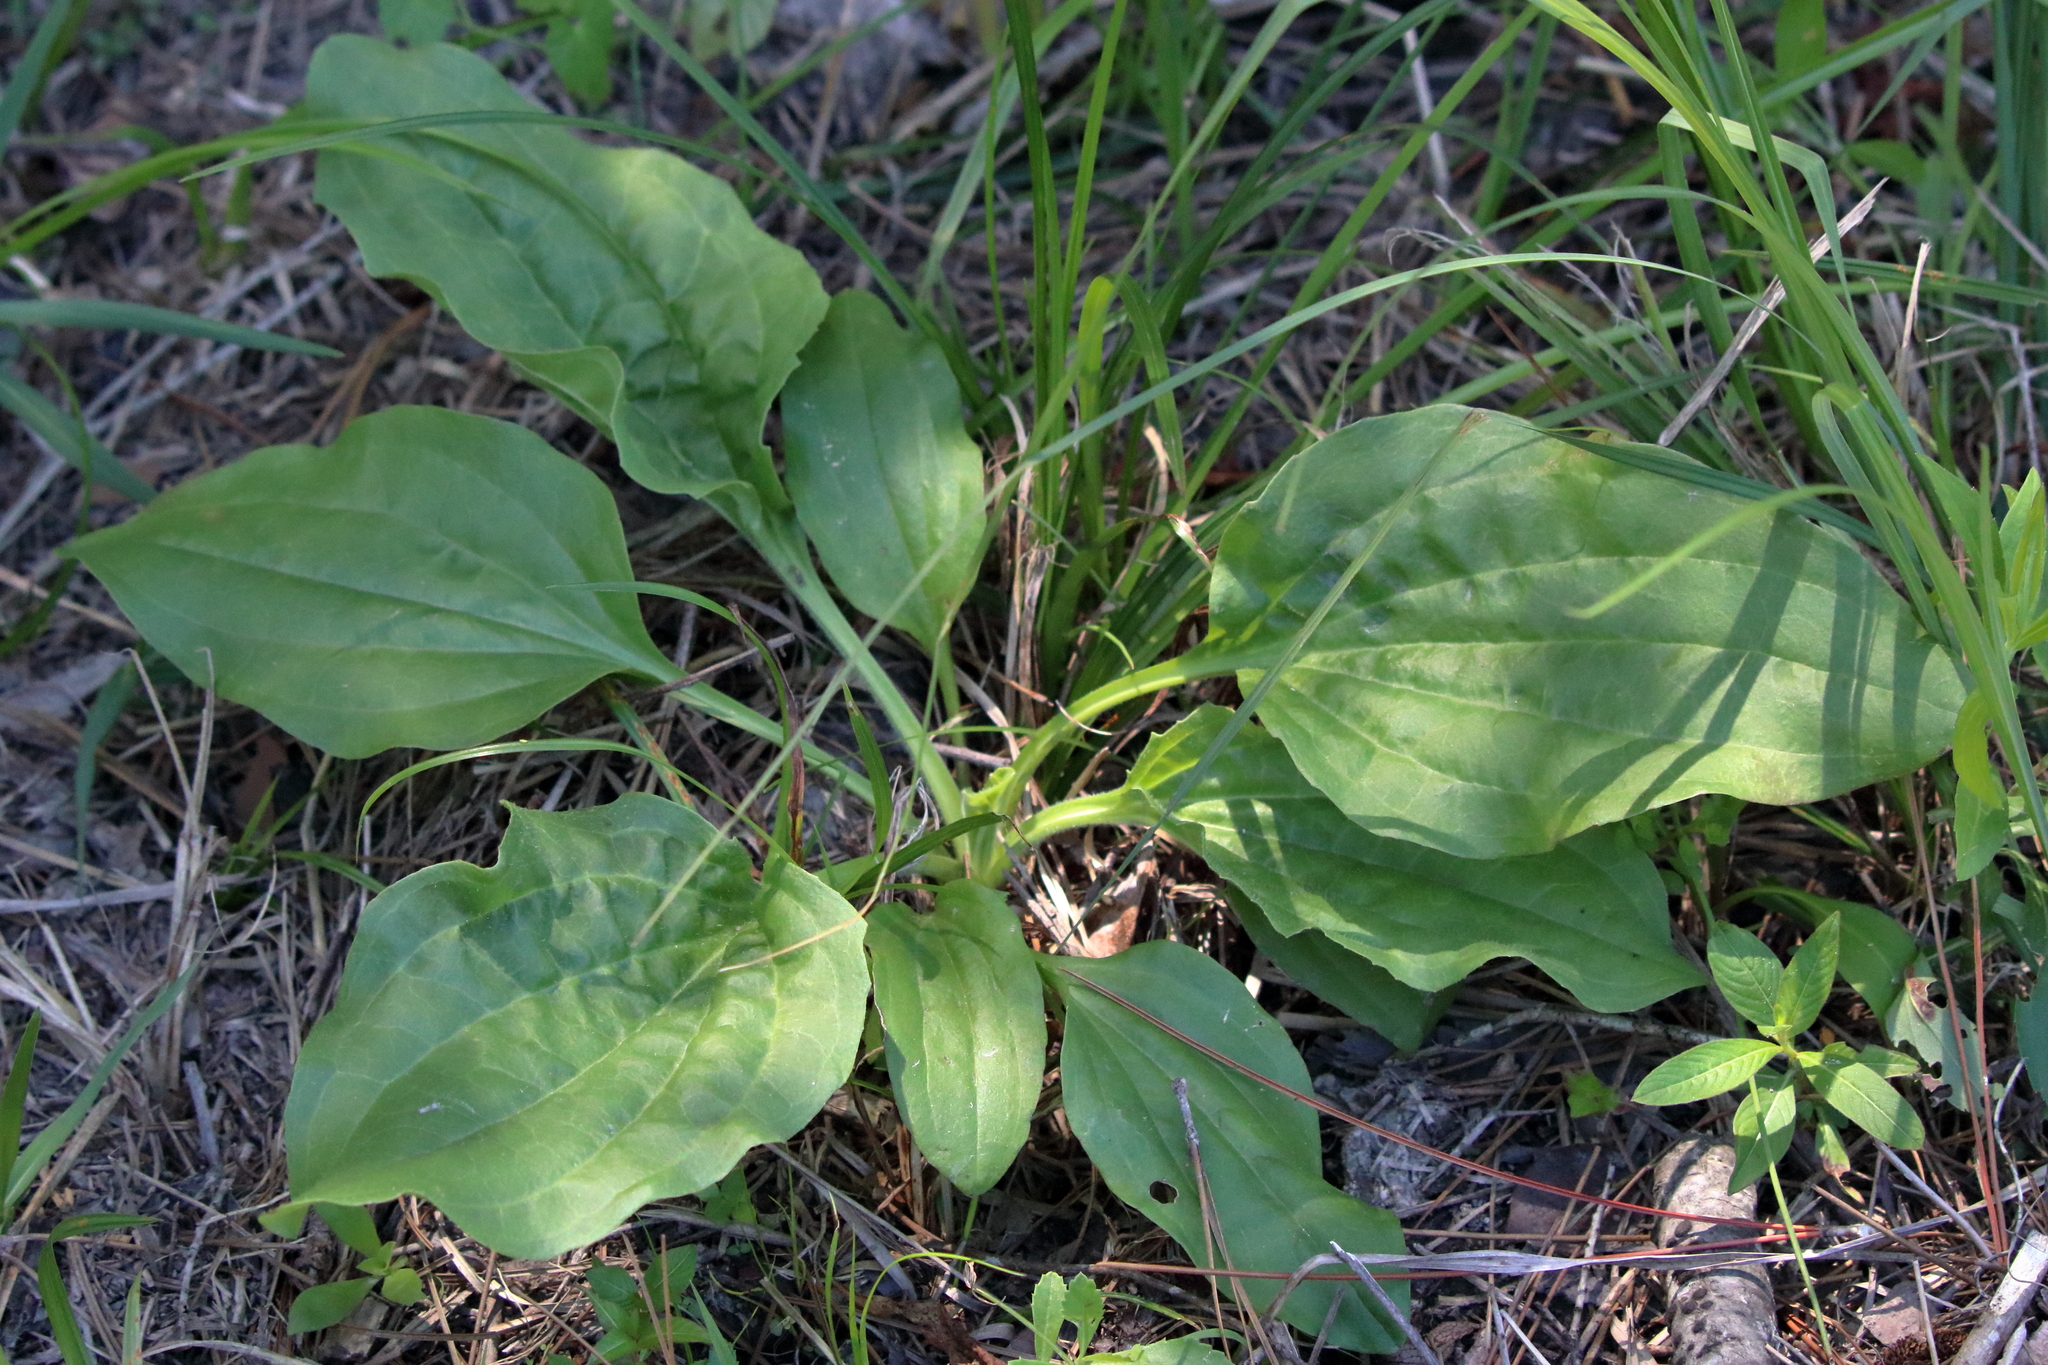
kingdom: Plantae
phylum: Tracheophyta
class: Magnoliopsida
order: Lamiales
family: Plantaginaceae
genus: Plantago
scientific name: Plantago major
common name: Common plantain
